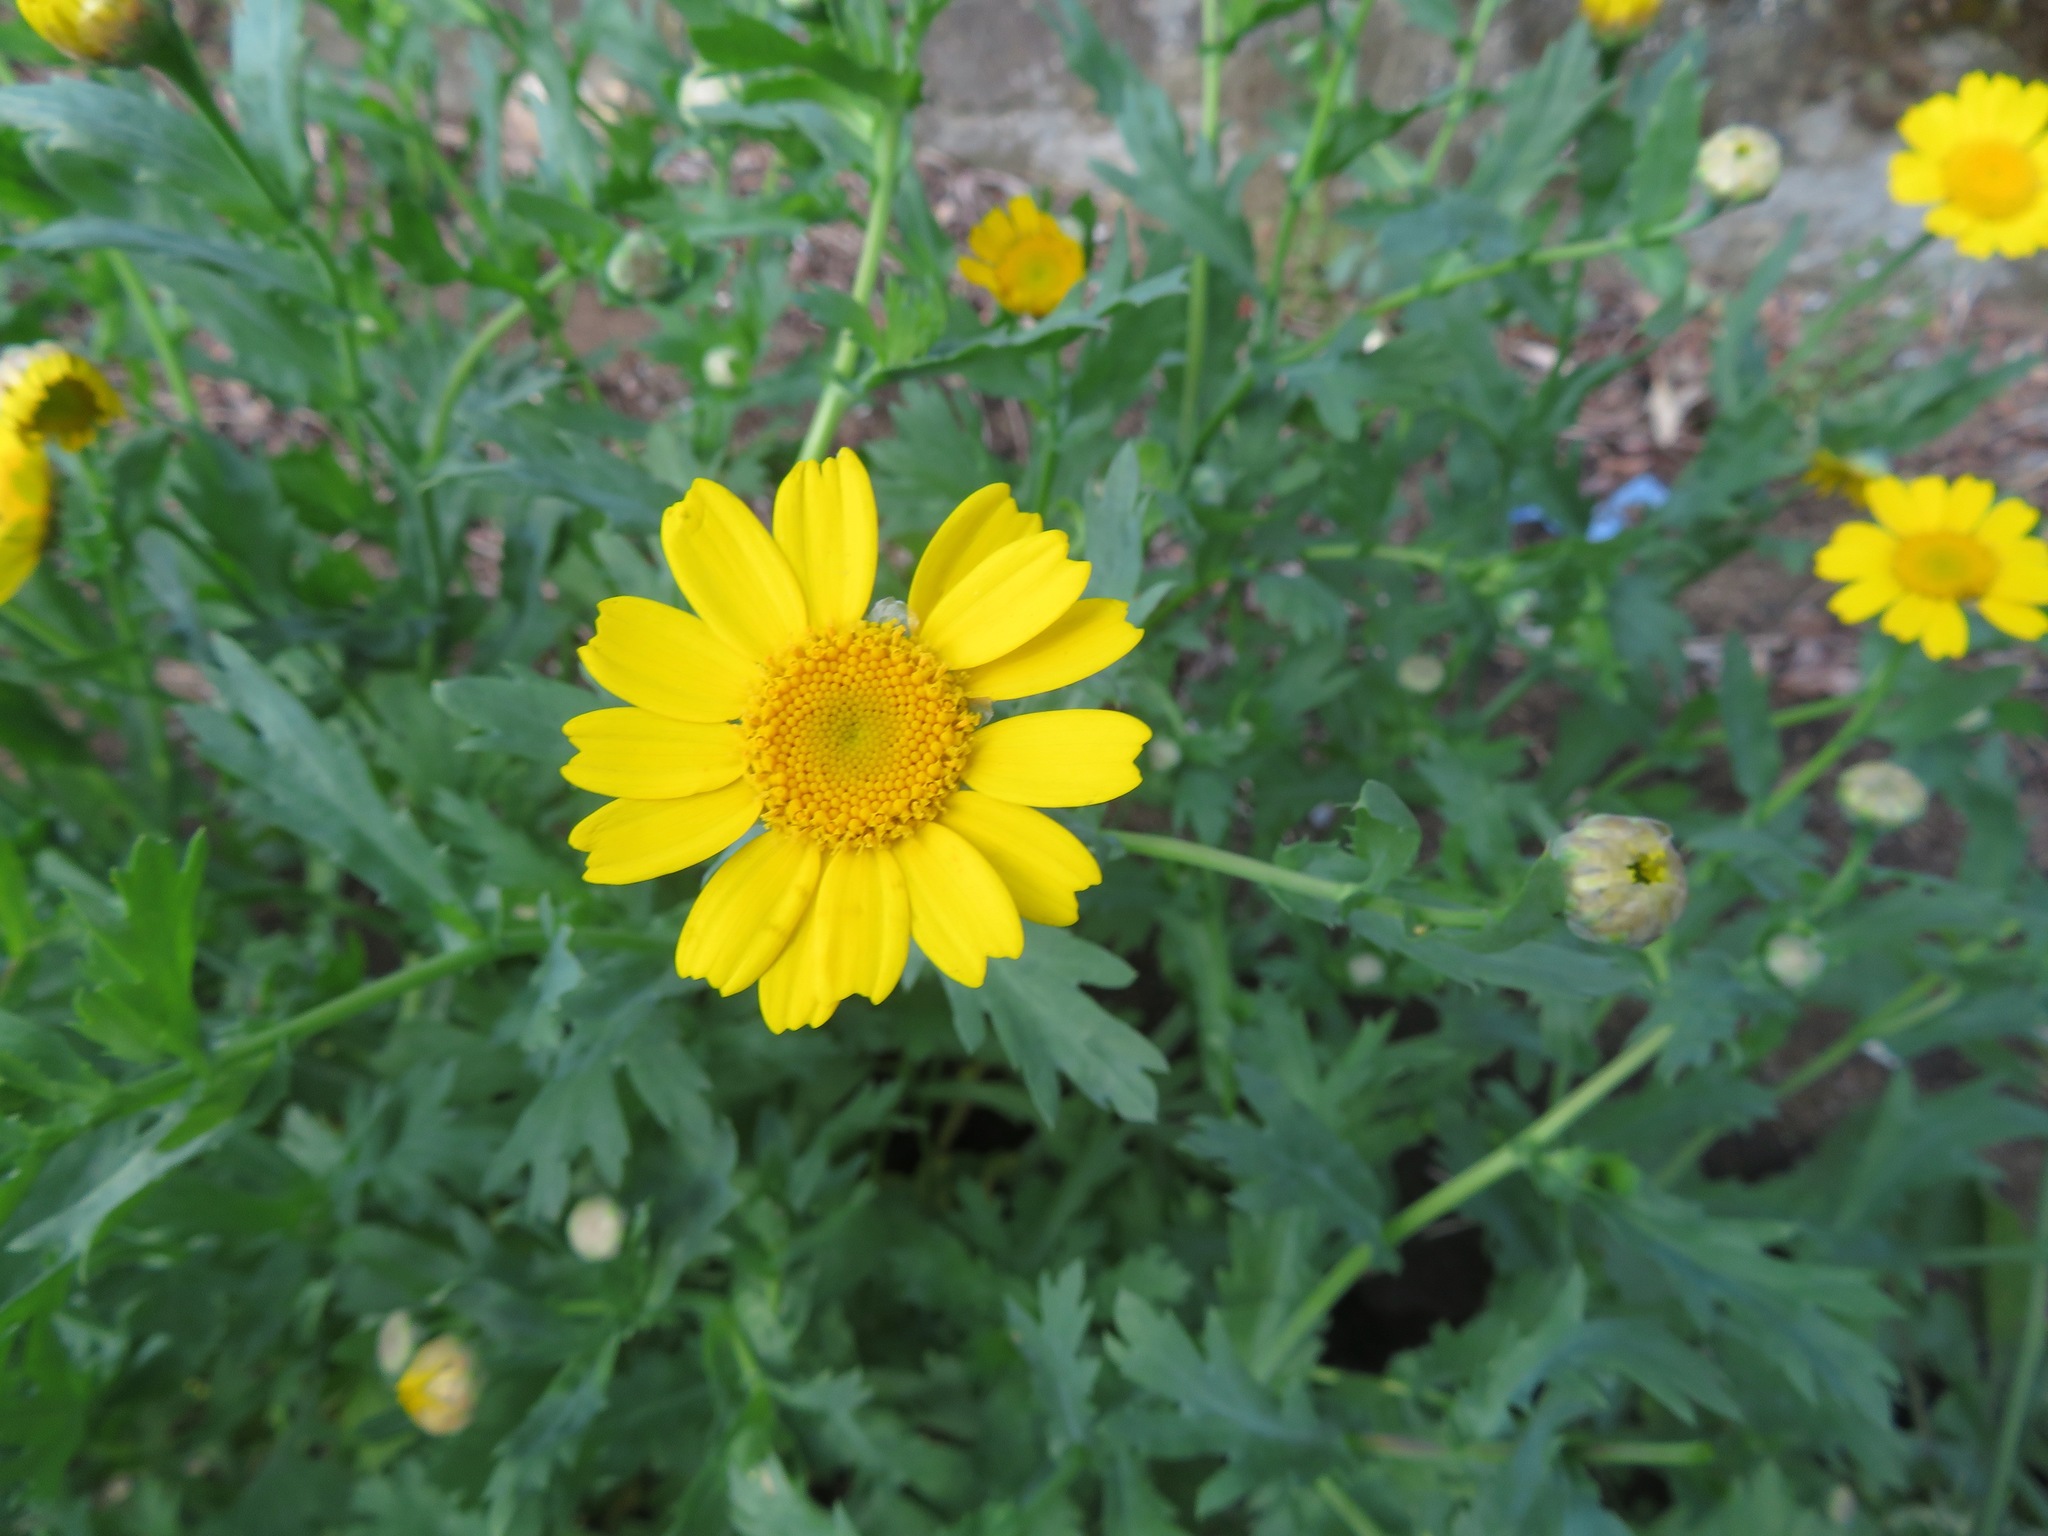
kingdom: Plantae
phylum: Tracheophyta
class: Magnoliopsida
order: Asterales
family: Asteraceae
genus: Glebionis
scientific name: Glebionis segetum
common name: Corndaisy
